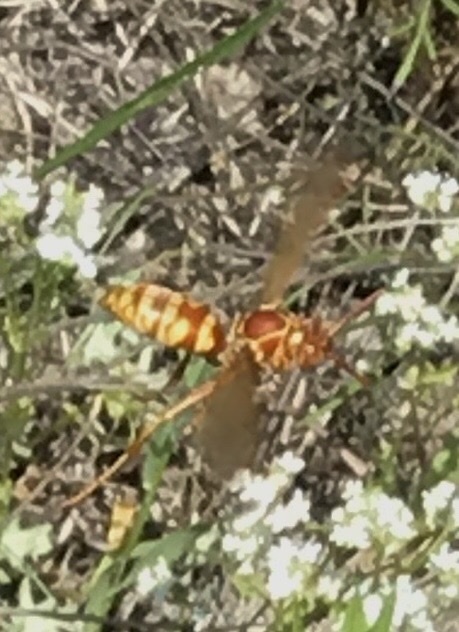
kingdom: Animalia
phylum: Arthropoda
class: Insecta
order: Hymenoptera
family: Eumenidae
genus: Polistes
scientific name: Polistes apachus
